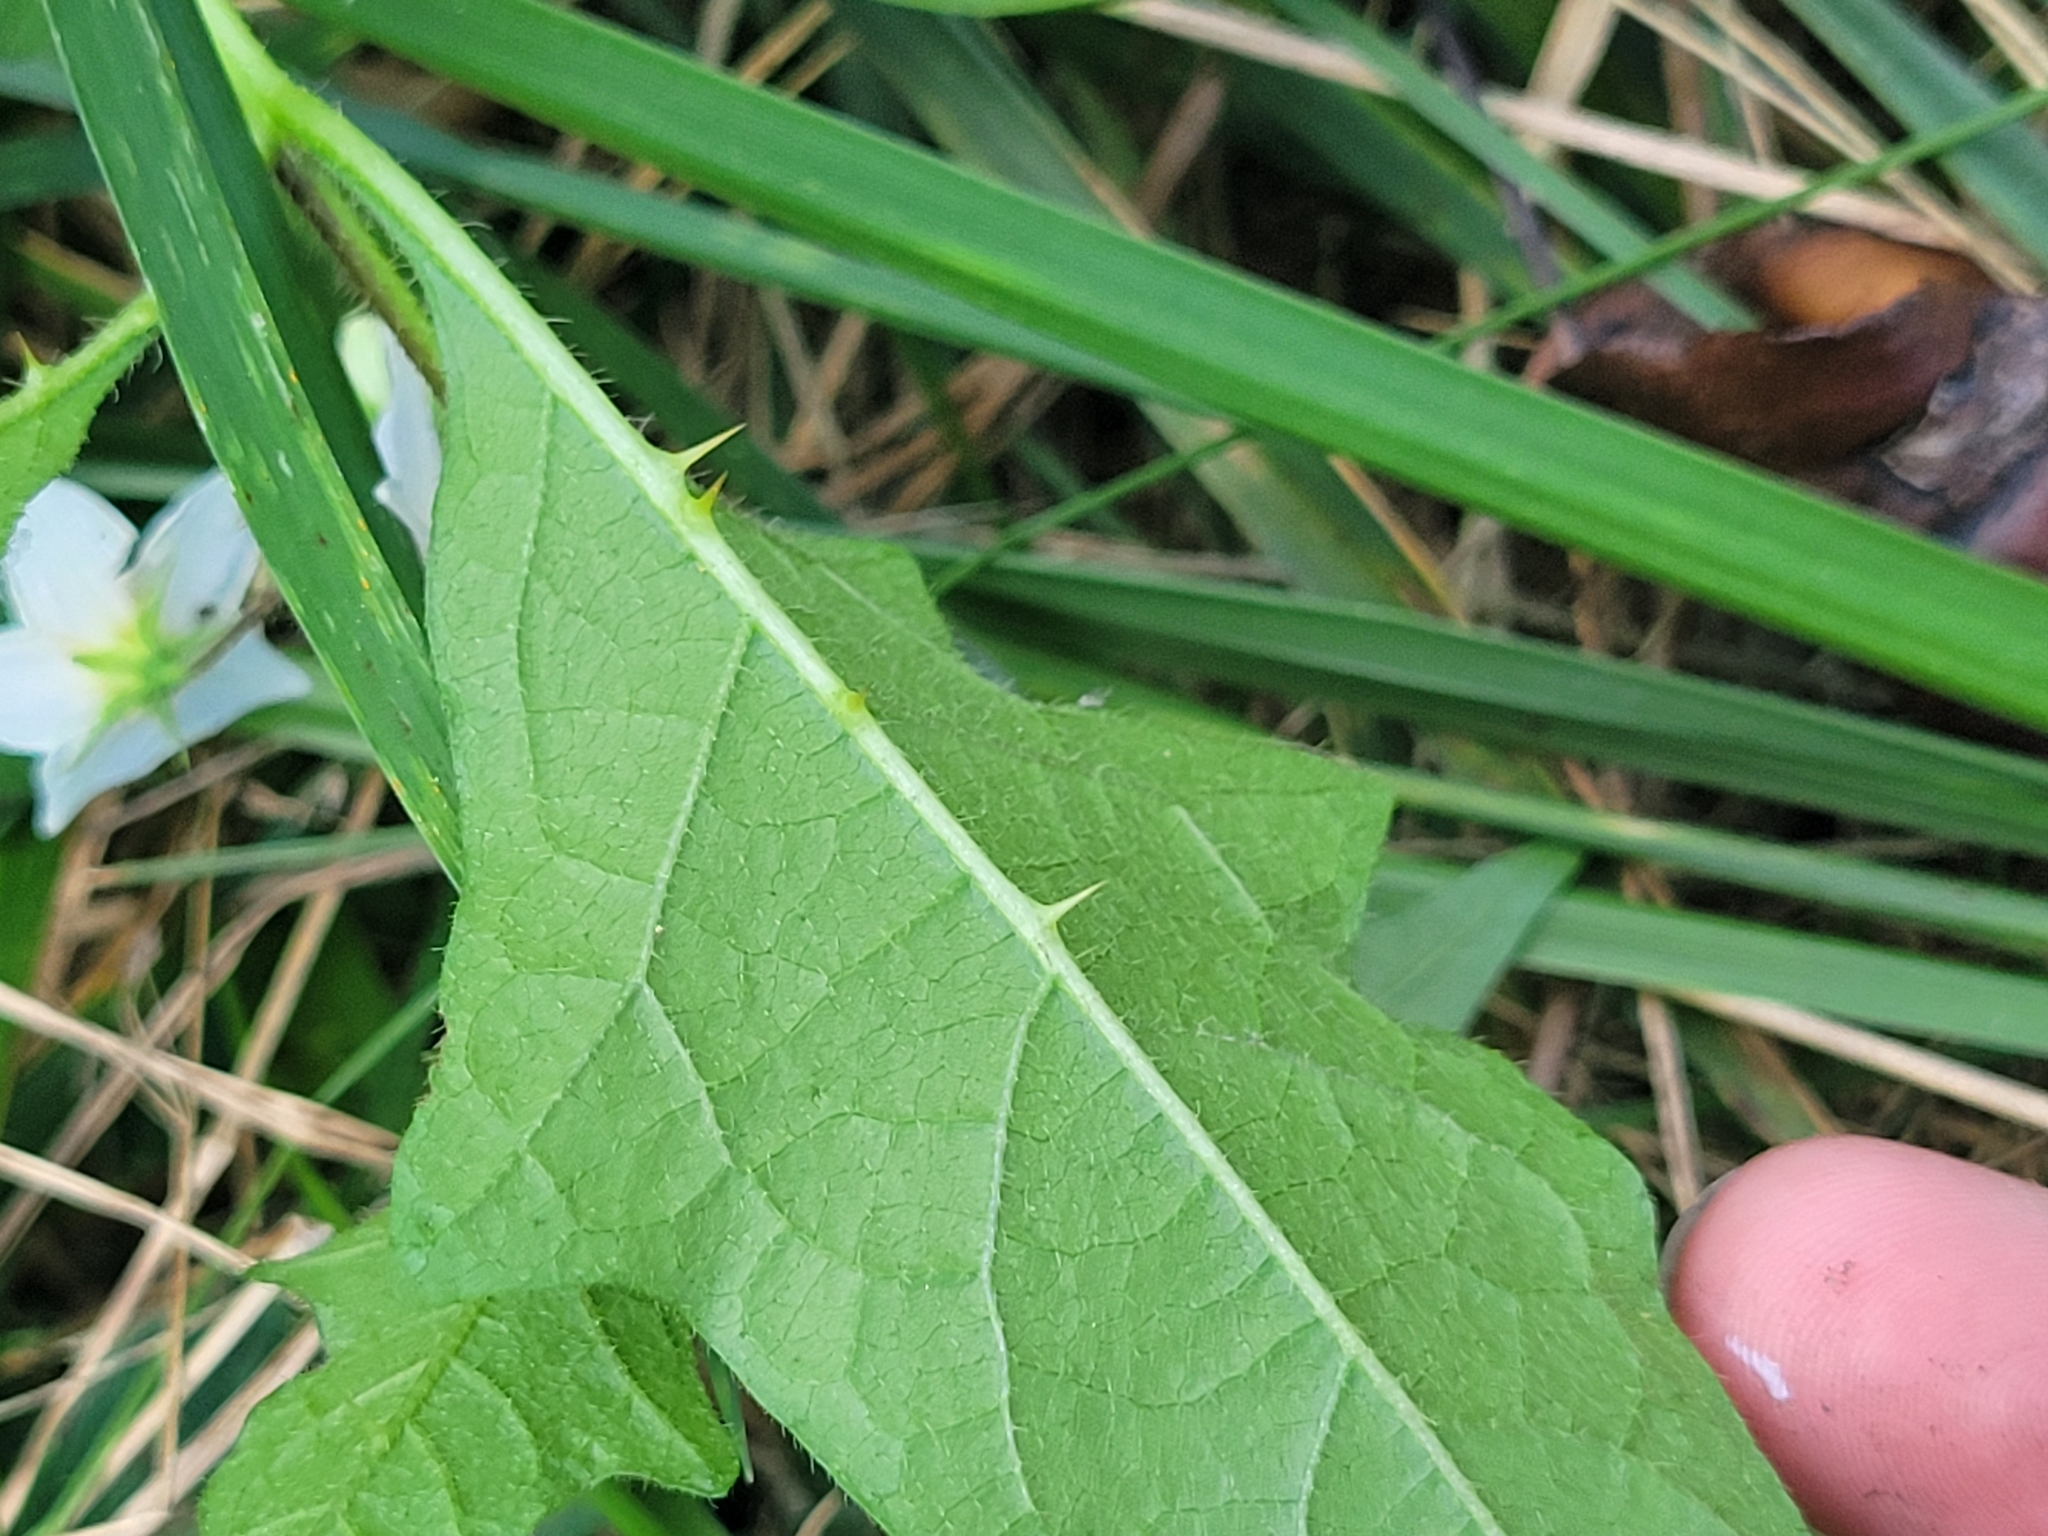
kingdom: Plantae
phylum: Tracheophyta
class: Magnoliopsida
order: Solanales
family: Solanaceae
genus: Solanum
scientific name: Solanum carolinense
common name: Horse-nettle
